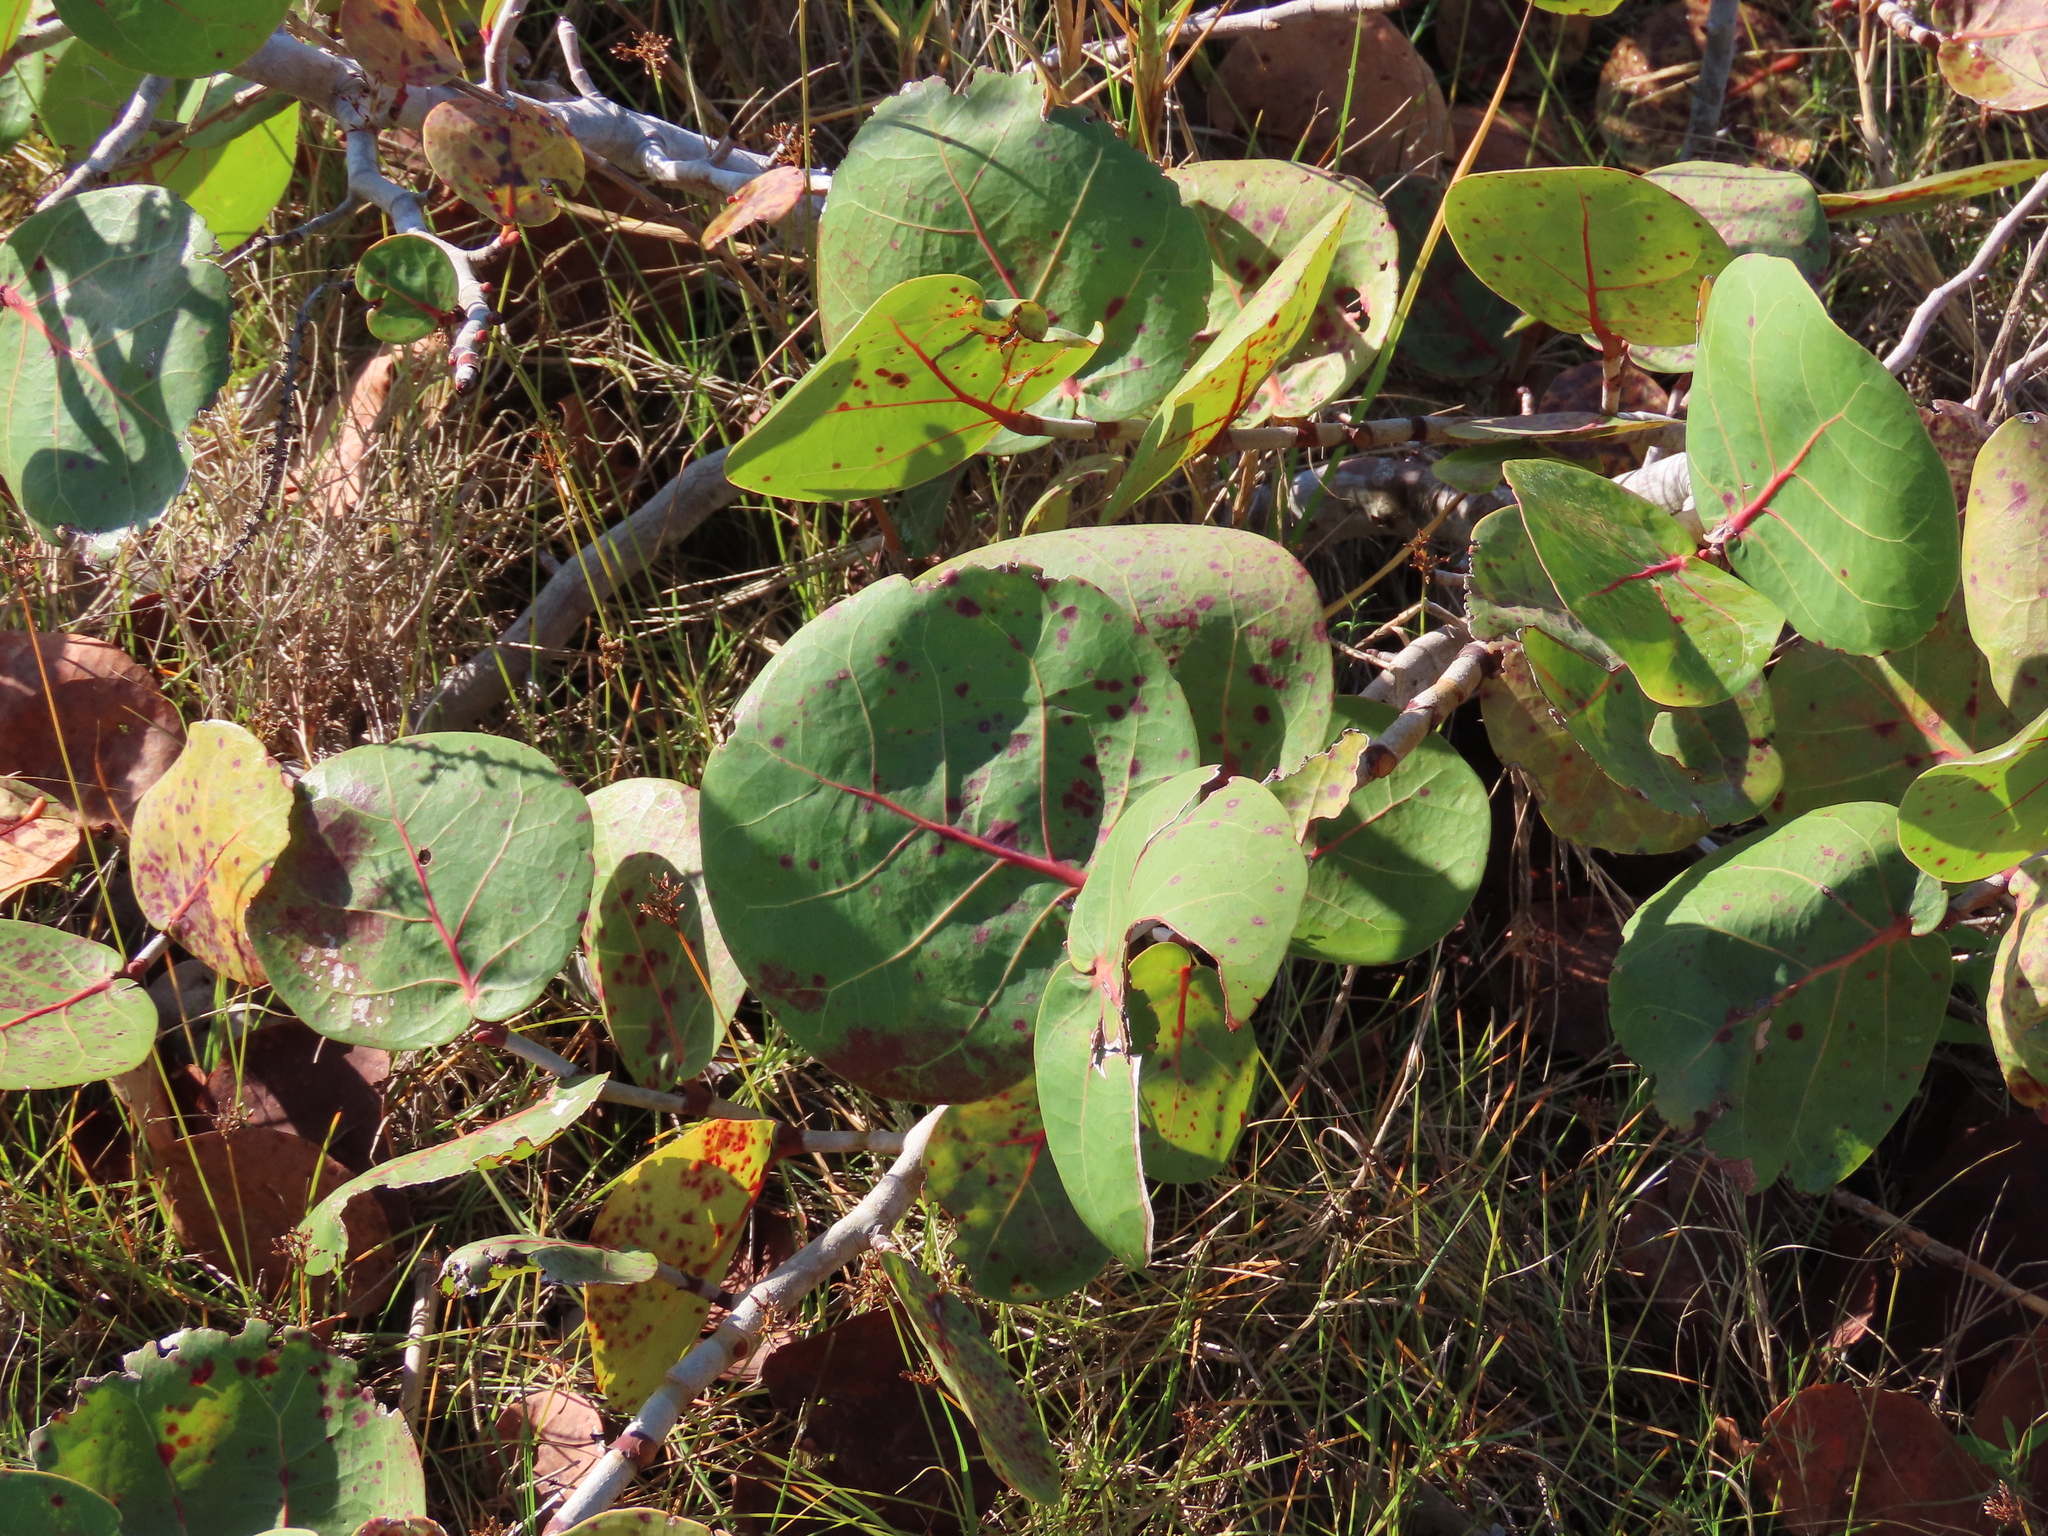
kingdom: Plantae
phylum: Tracheophyta
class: Magnoliopsida
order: Caryophyllales
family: Polygonaceae
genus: Coccoloba
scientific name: Coccoloba uvifera
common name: Seagrape
